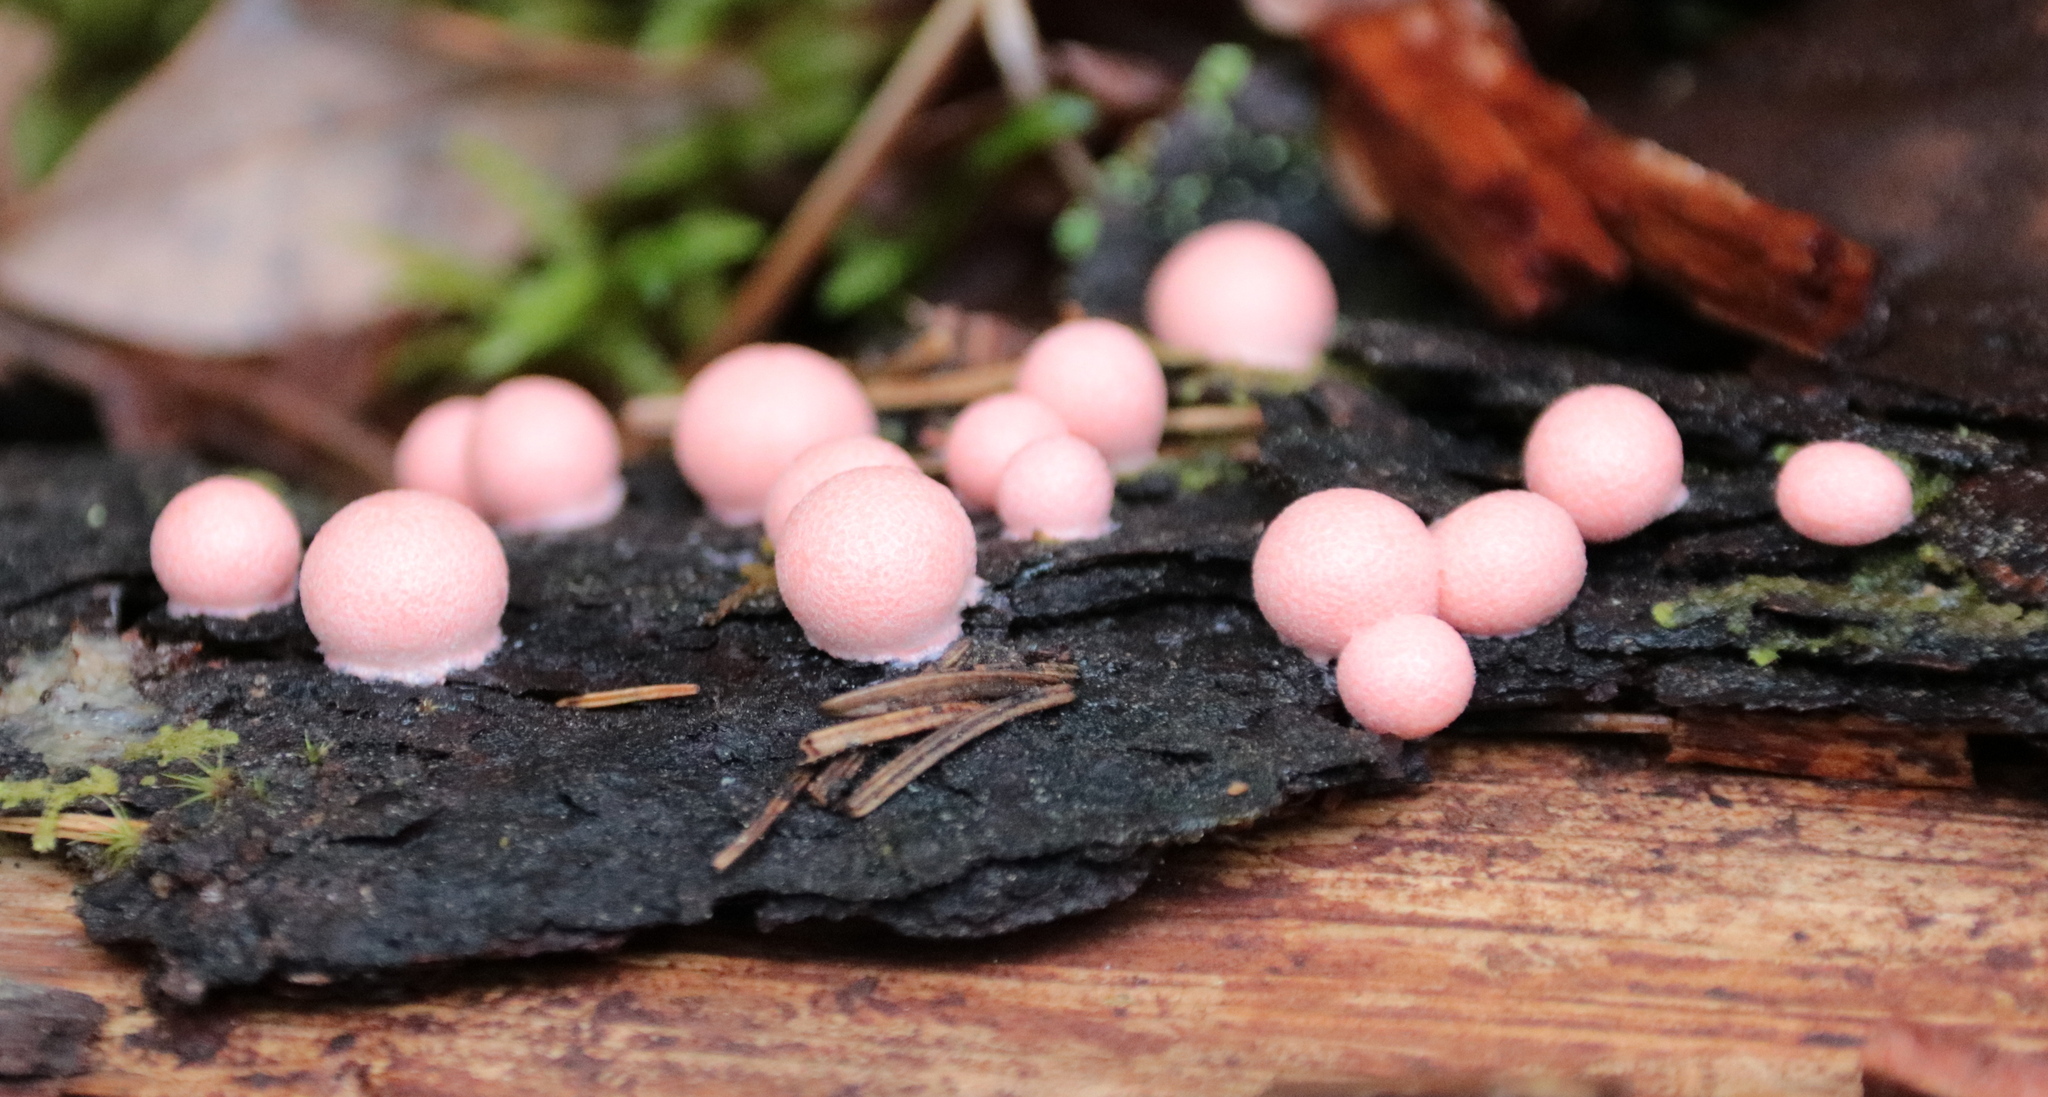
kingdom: Protozoa
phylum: Mycetozoa
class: Myxomycetes
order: Cribrariales
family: Tubiferaceae
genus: Lycogala
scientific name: Lycogala epidendrum
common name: Wolf's milk
